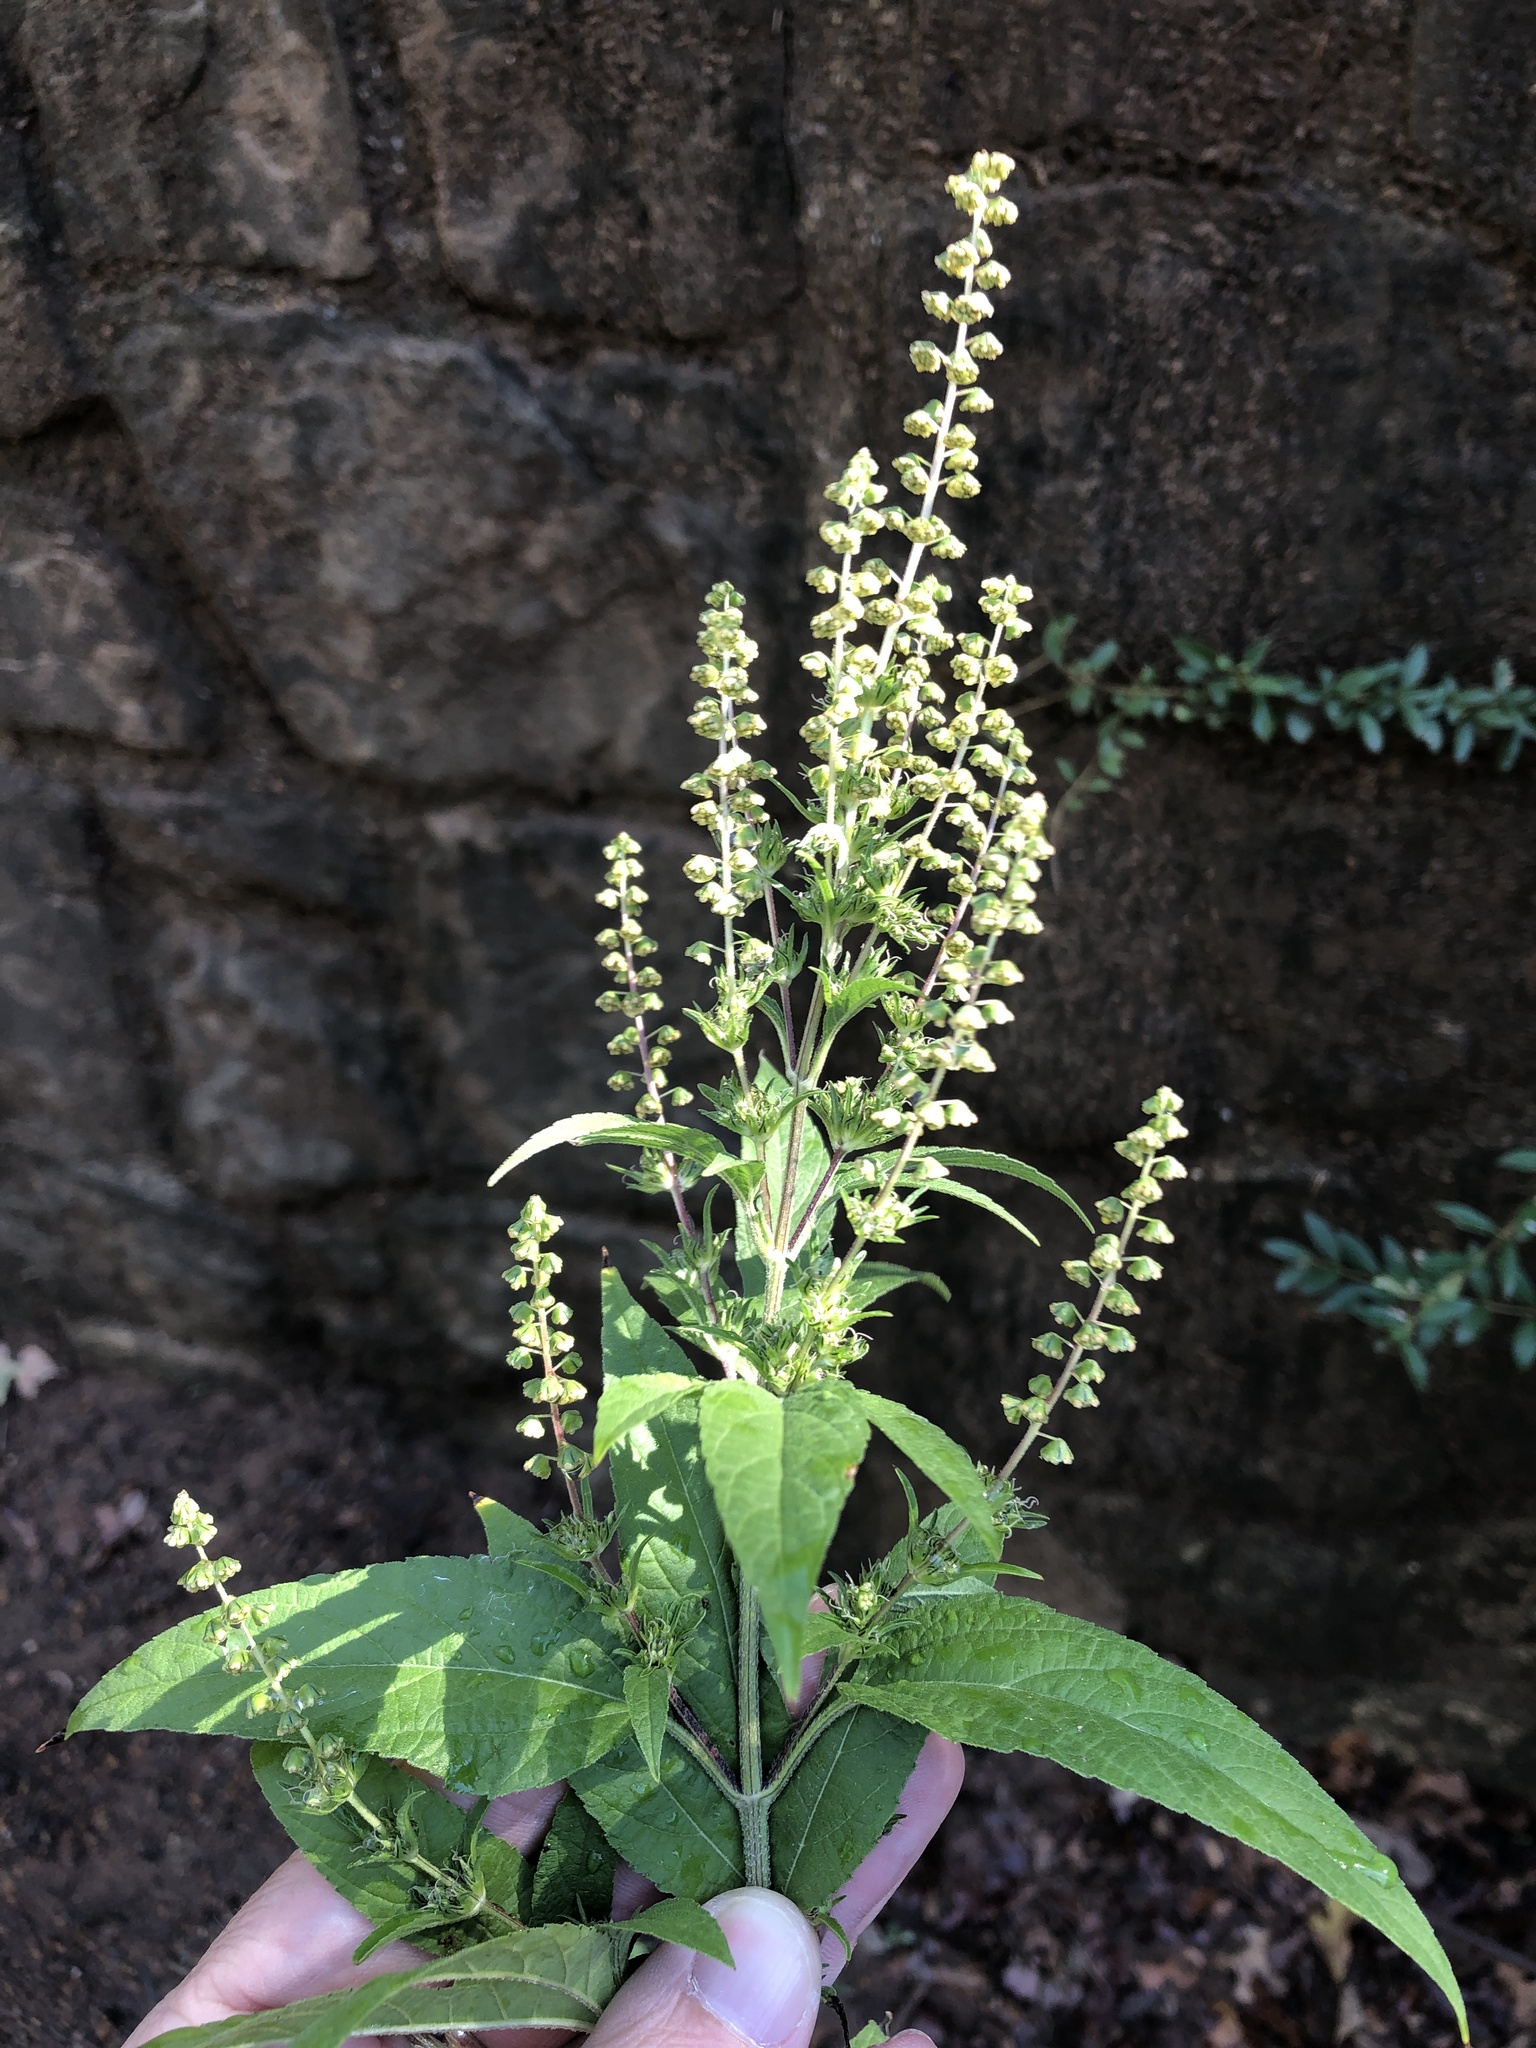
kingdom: Plantae
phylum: Tracheophyta
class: Magnoliopsida
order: Asterales
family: Asteraceae
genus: Ambrosia
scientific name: Ambrosia trifida
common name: Giant ragweed
